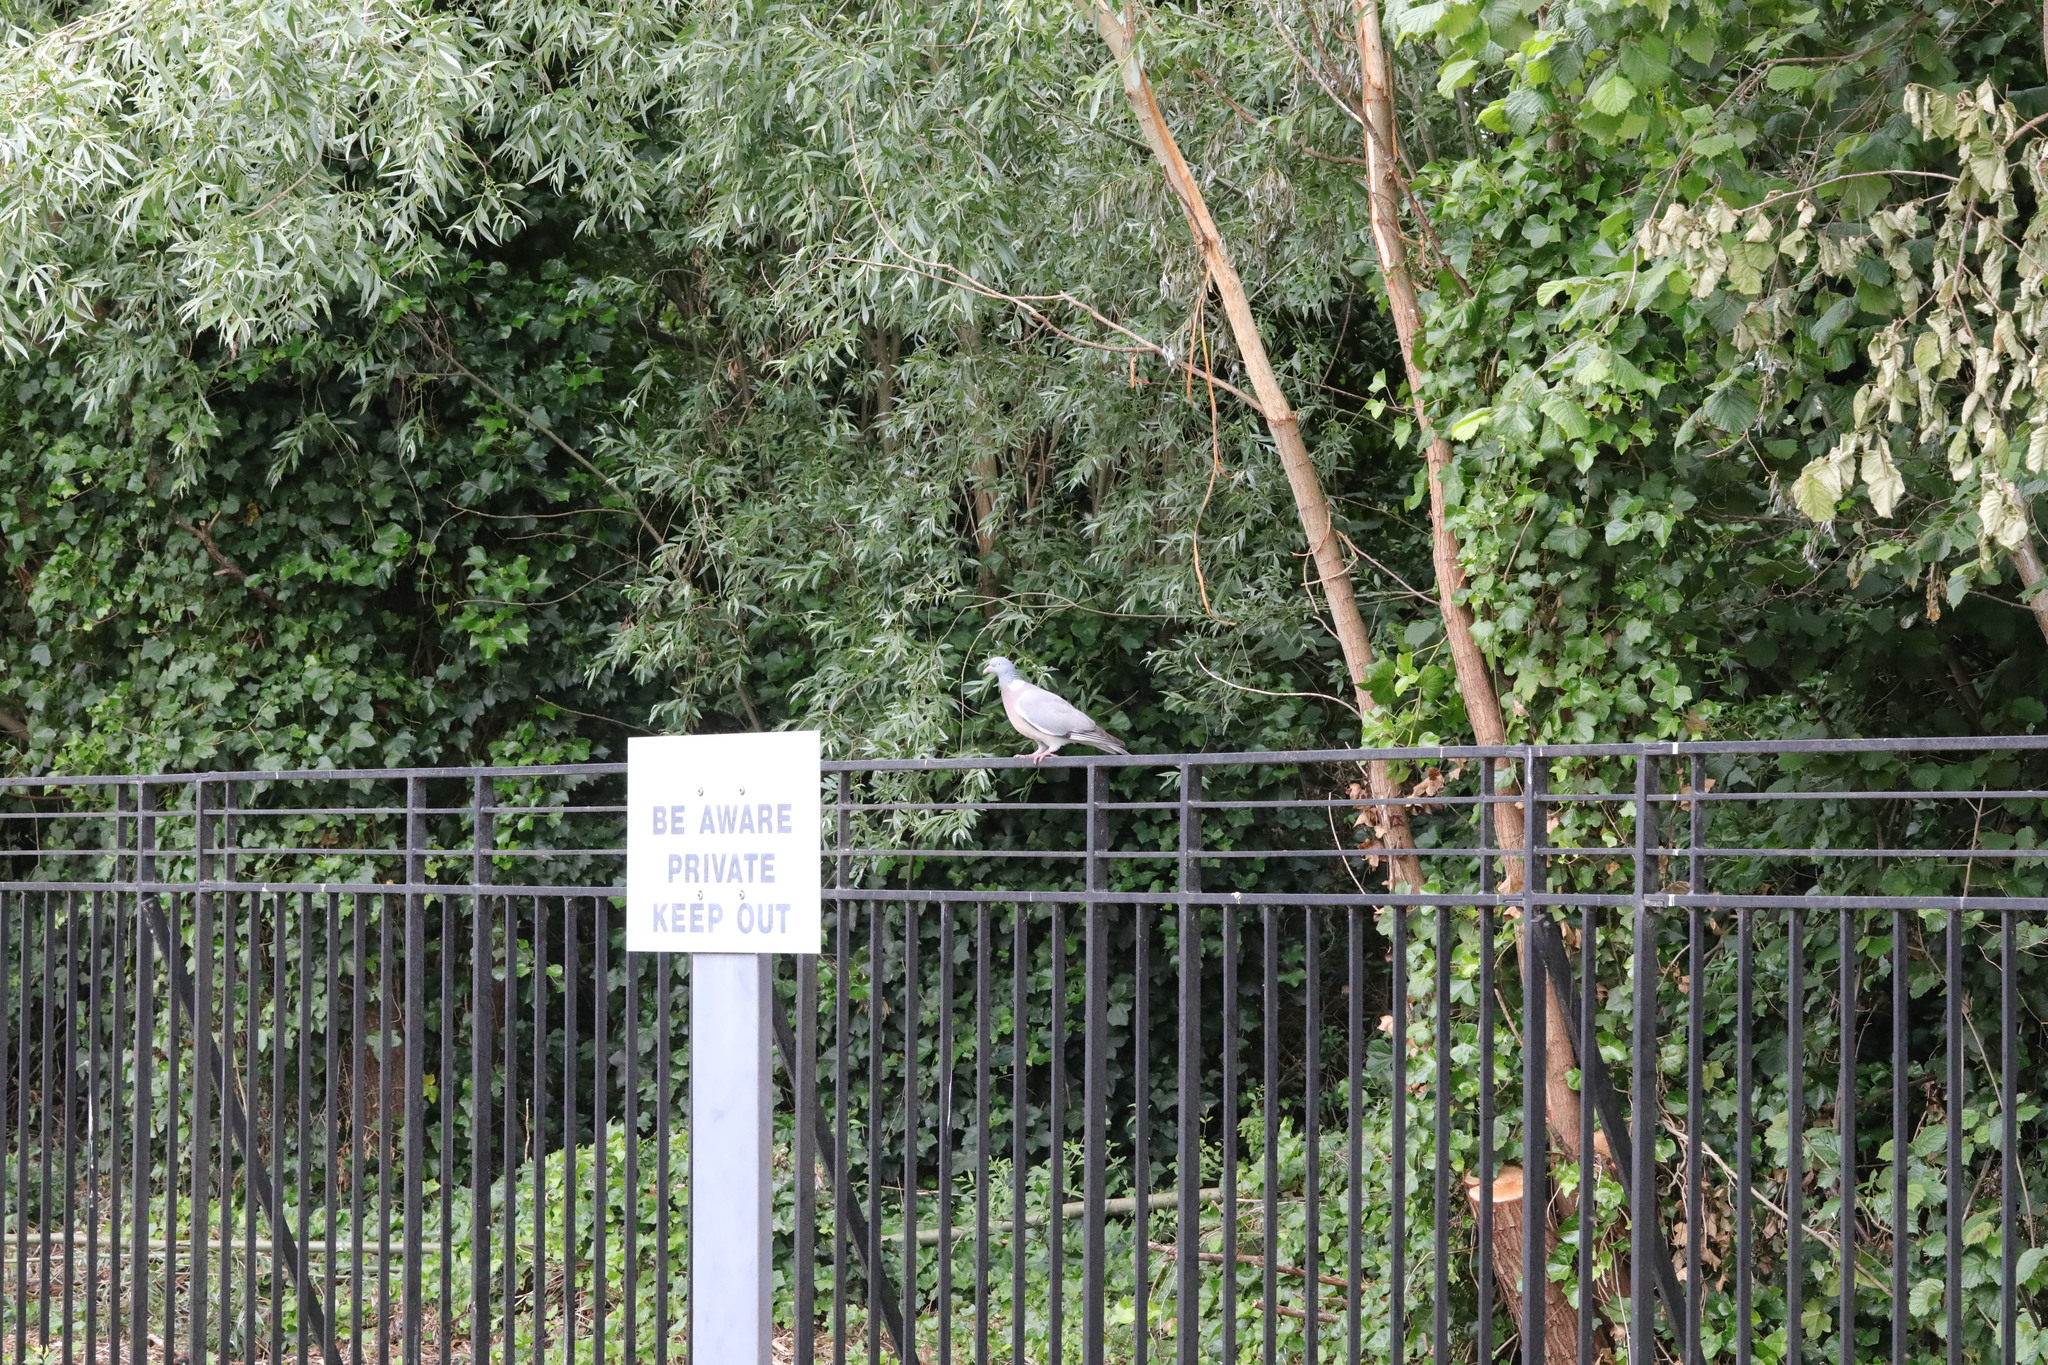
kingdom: Animalia
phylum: Chordata
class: Aves
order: Columbiformes
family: Columbidae
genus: Columba
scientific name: Columba palumbus
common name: Common wood pigeon
